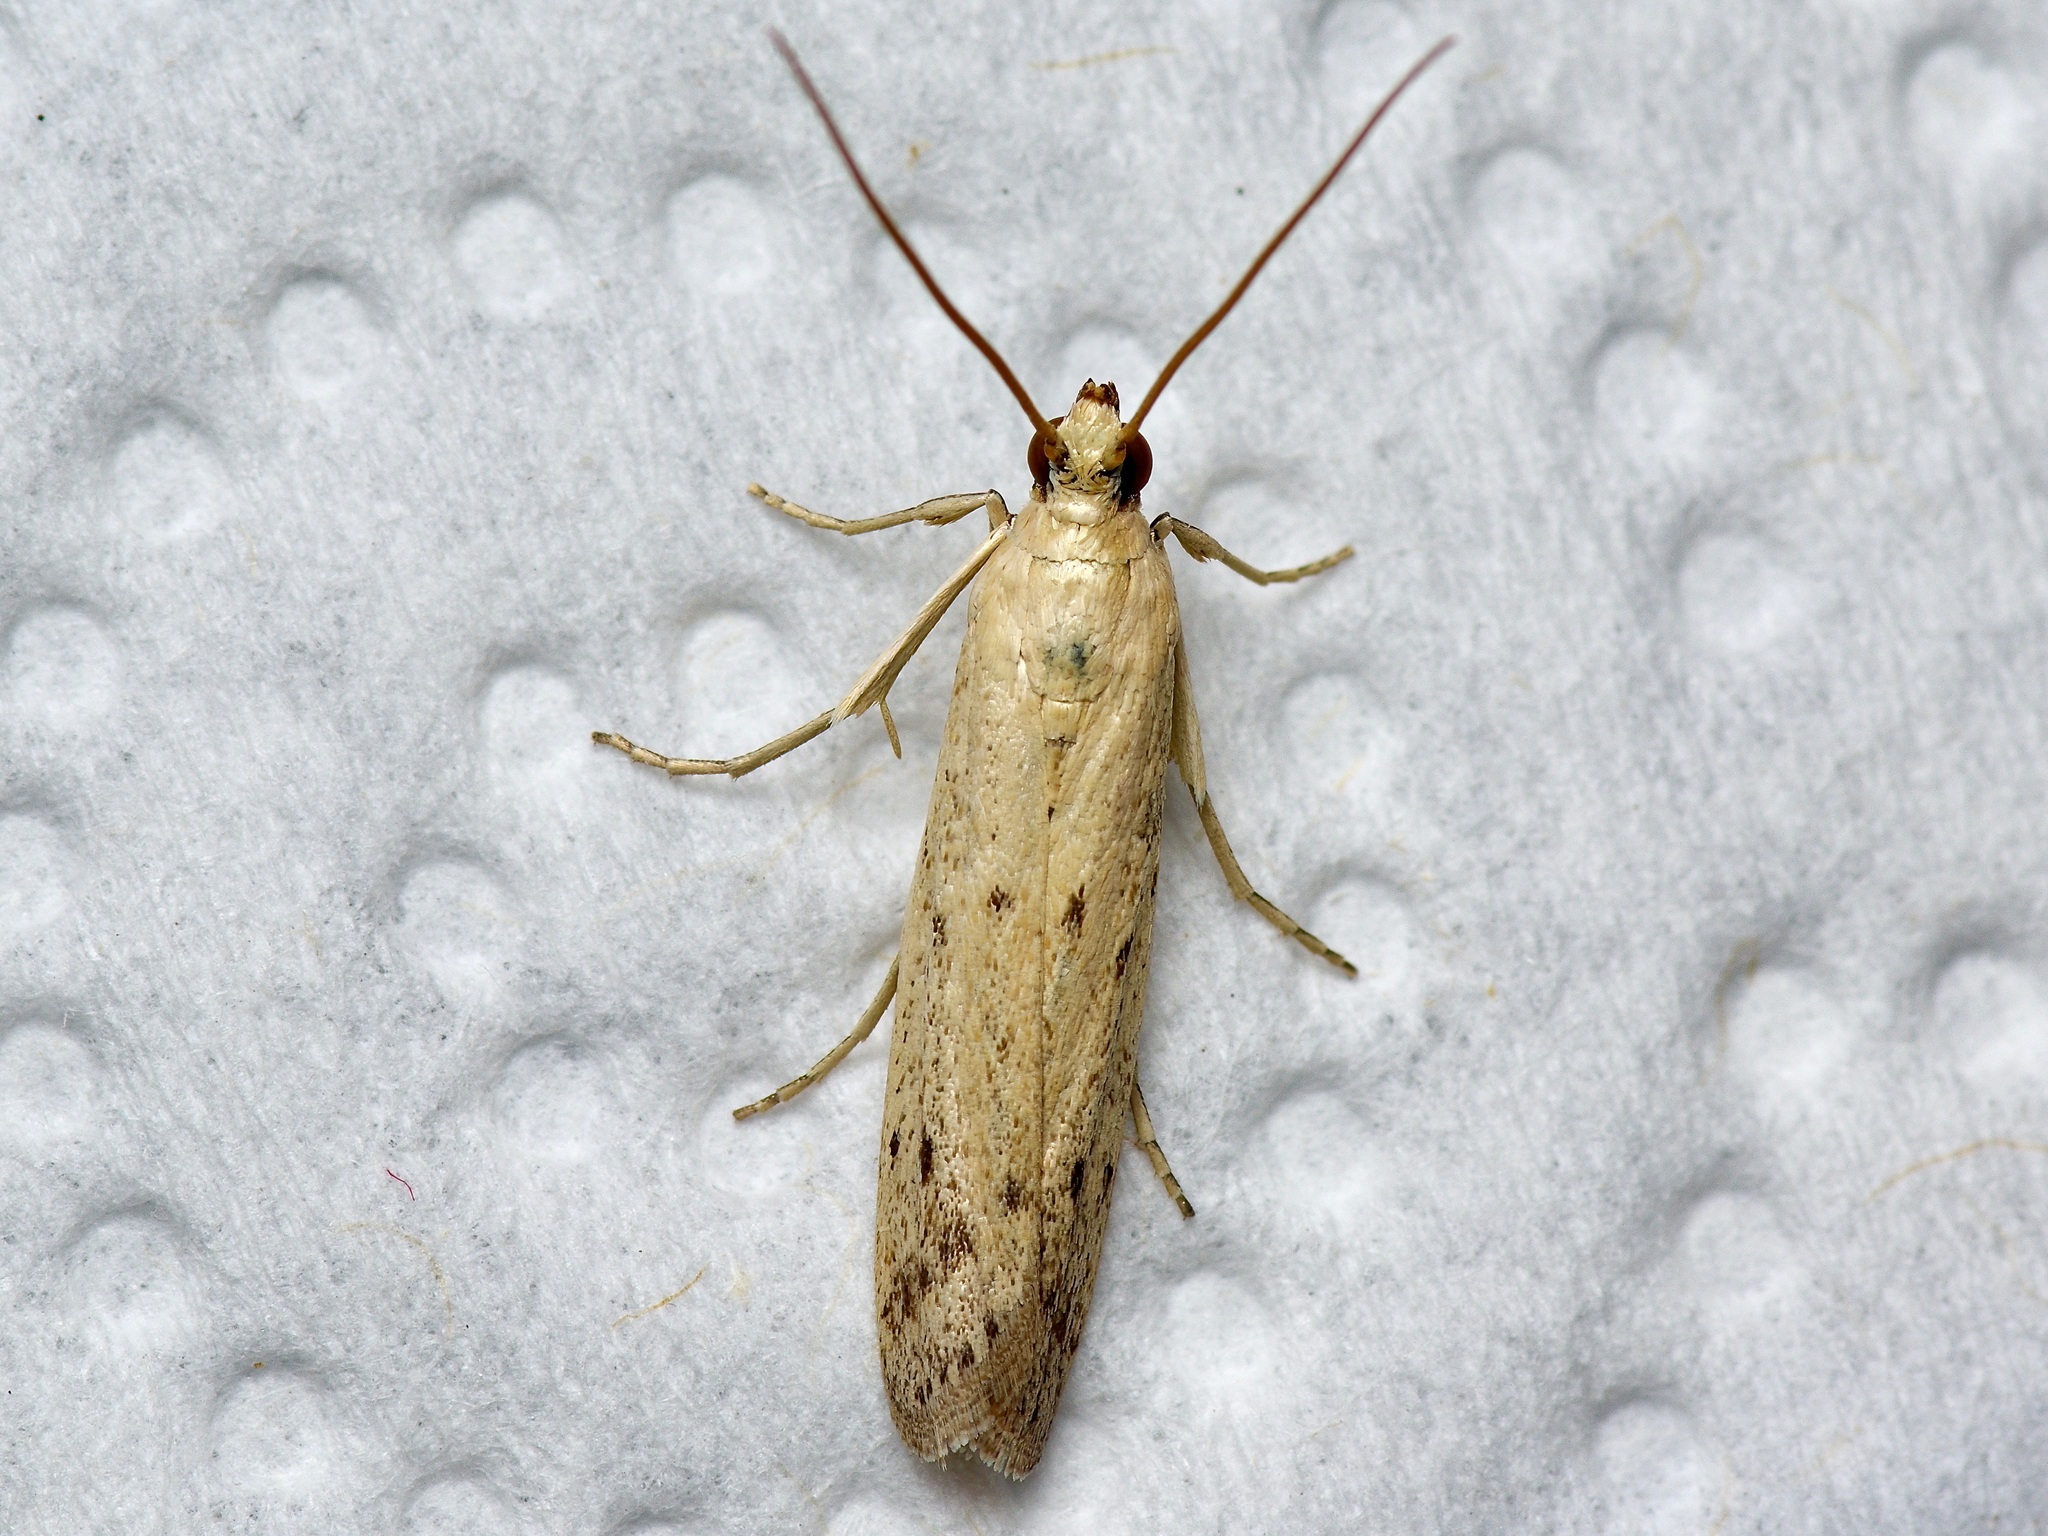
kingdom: Animalia
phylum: Arthropoda
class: Insecta
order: Lepidoptera
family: Pyralidae
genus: Homoeosoma
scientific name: Homoeosoma electella
